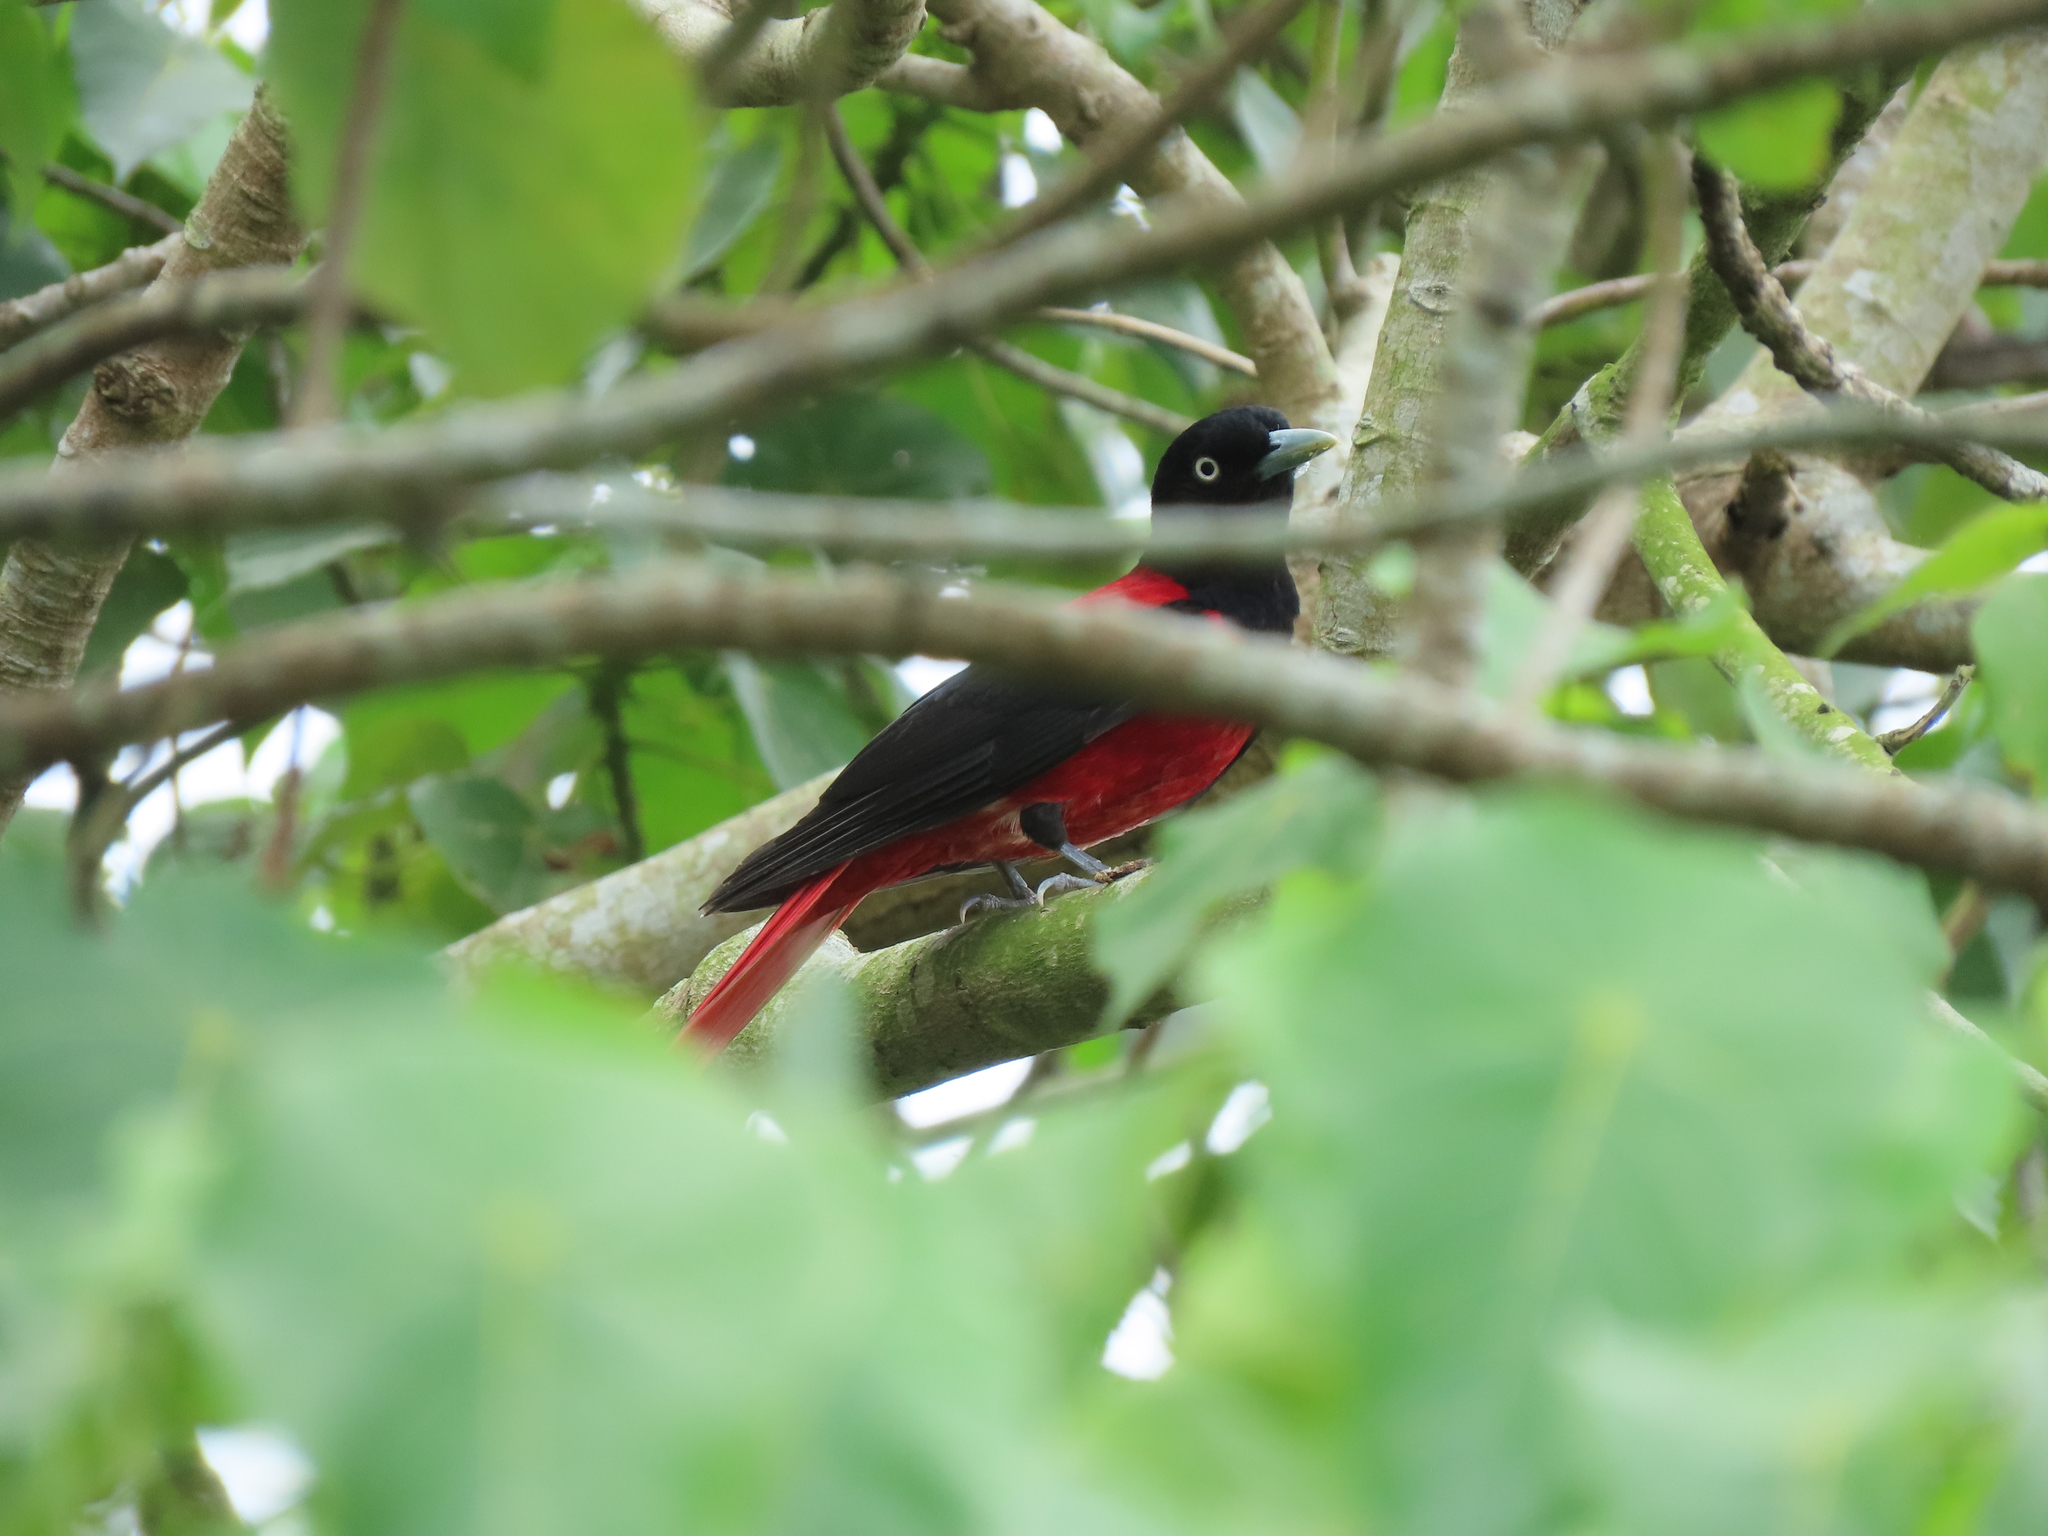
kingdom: Animalia
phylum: Chordata
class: Aves
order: Passeriformes
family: Oriolidae
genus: Oriolus
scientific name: Oriolus traillii
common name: Maroon oriole
